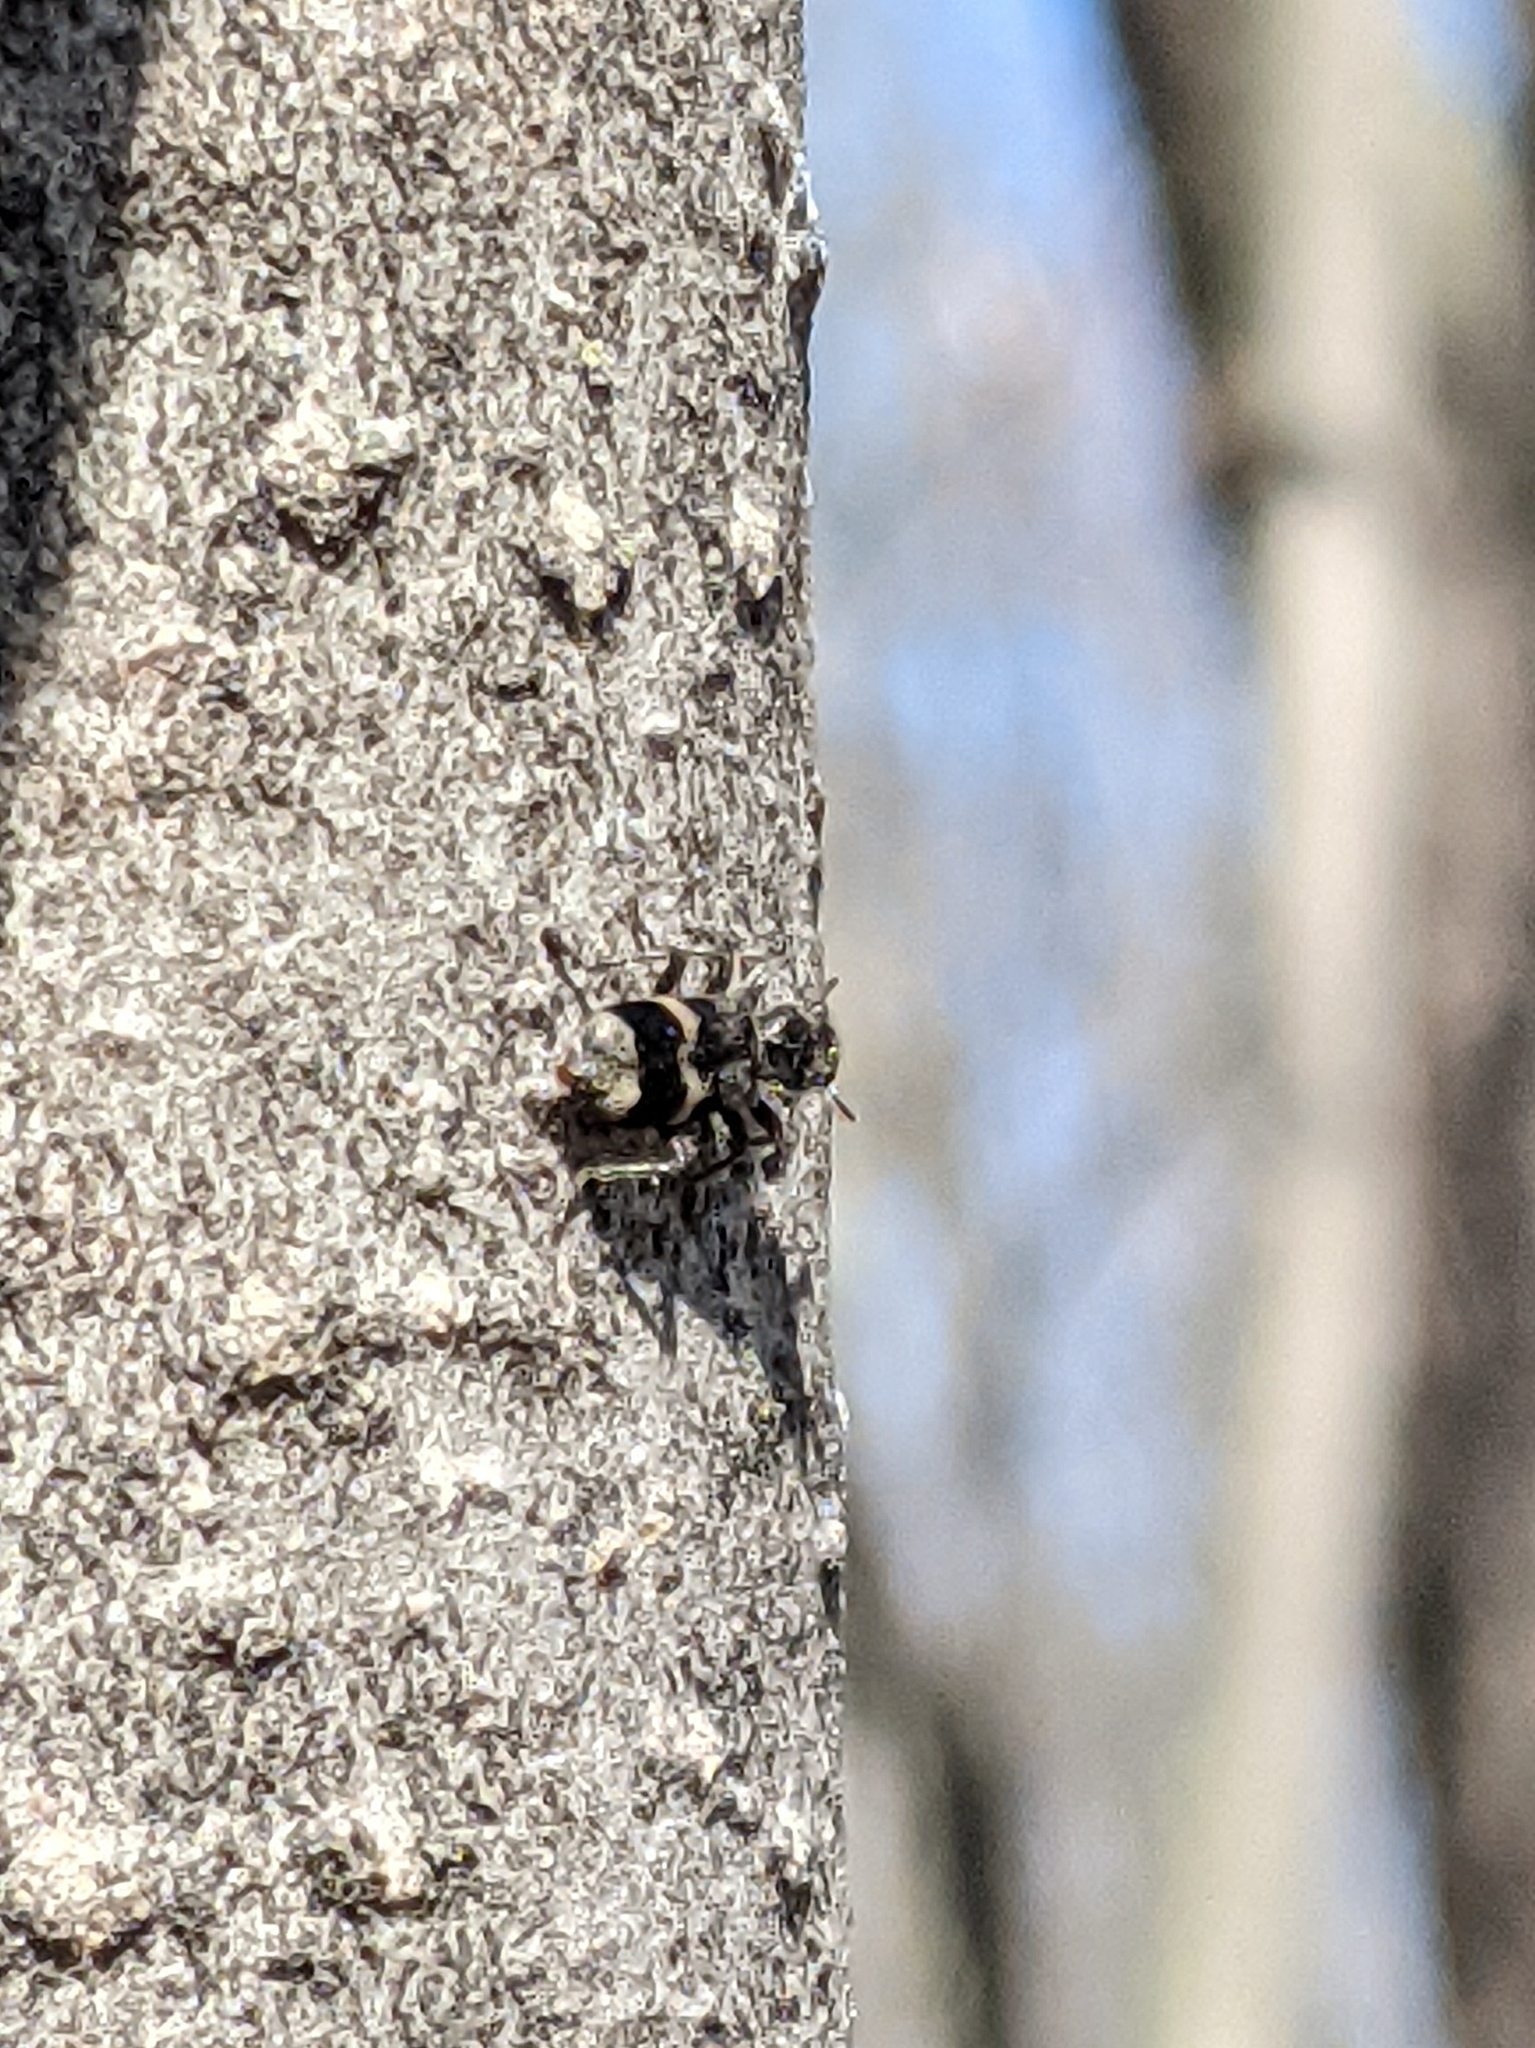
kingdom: Animalia
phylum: Arthropoda
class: Insecta
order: Coleoptera
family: Cleridae
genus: Enoclerus
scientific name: Enoclerus nigripes
